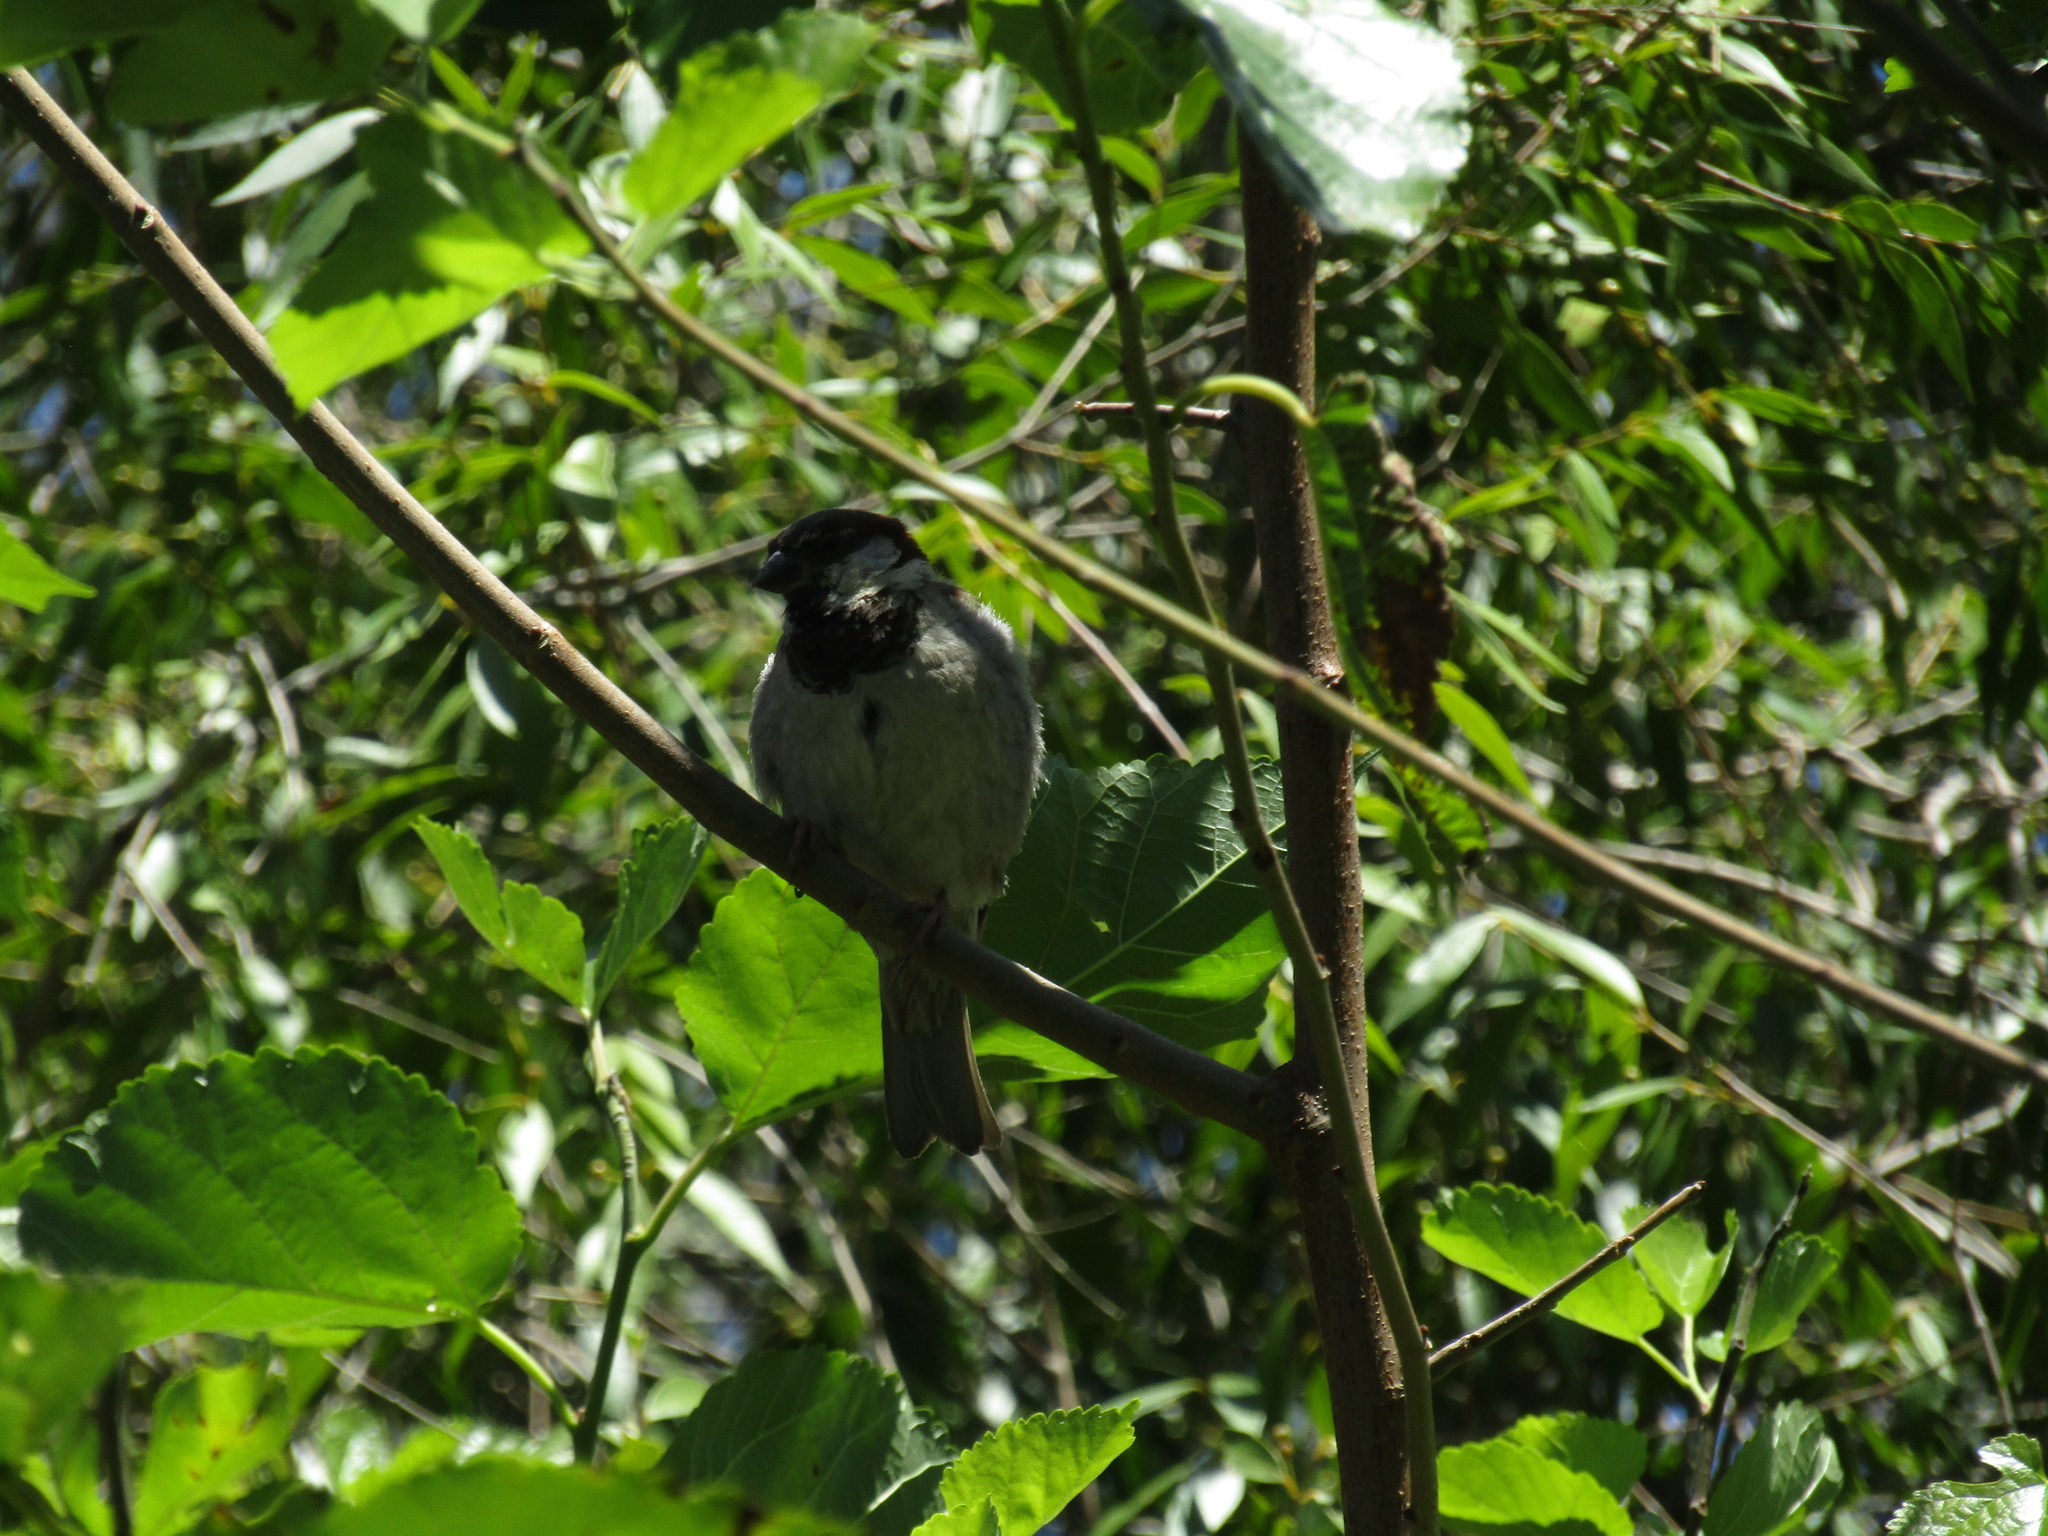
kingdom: Animalia
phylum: Chordata
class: Aves
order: Passeriformes
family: Passeridae
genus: Passer
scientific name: Passer domesticus
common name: House sparrow
